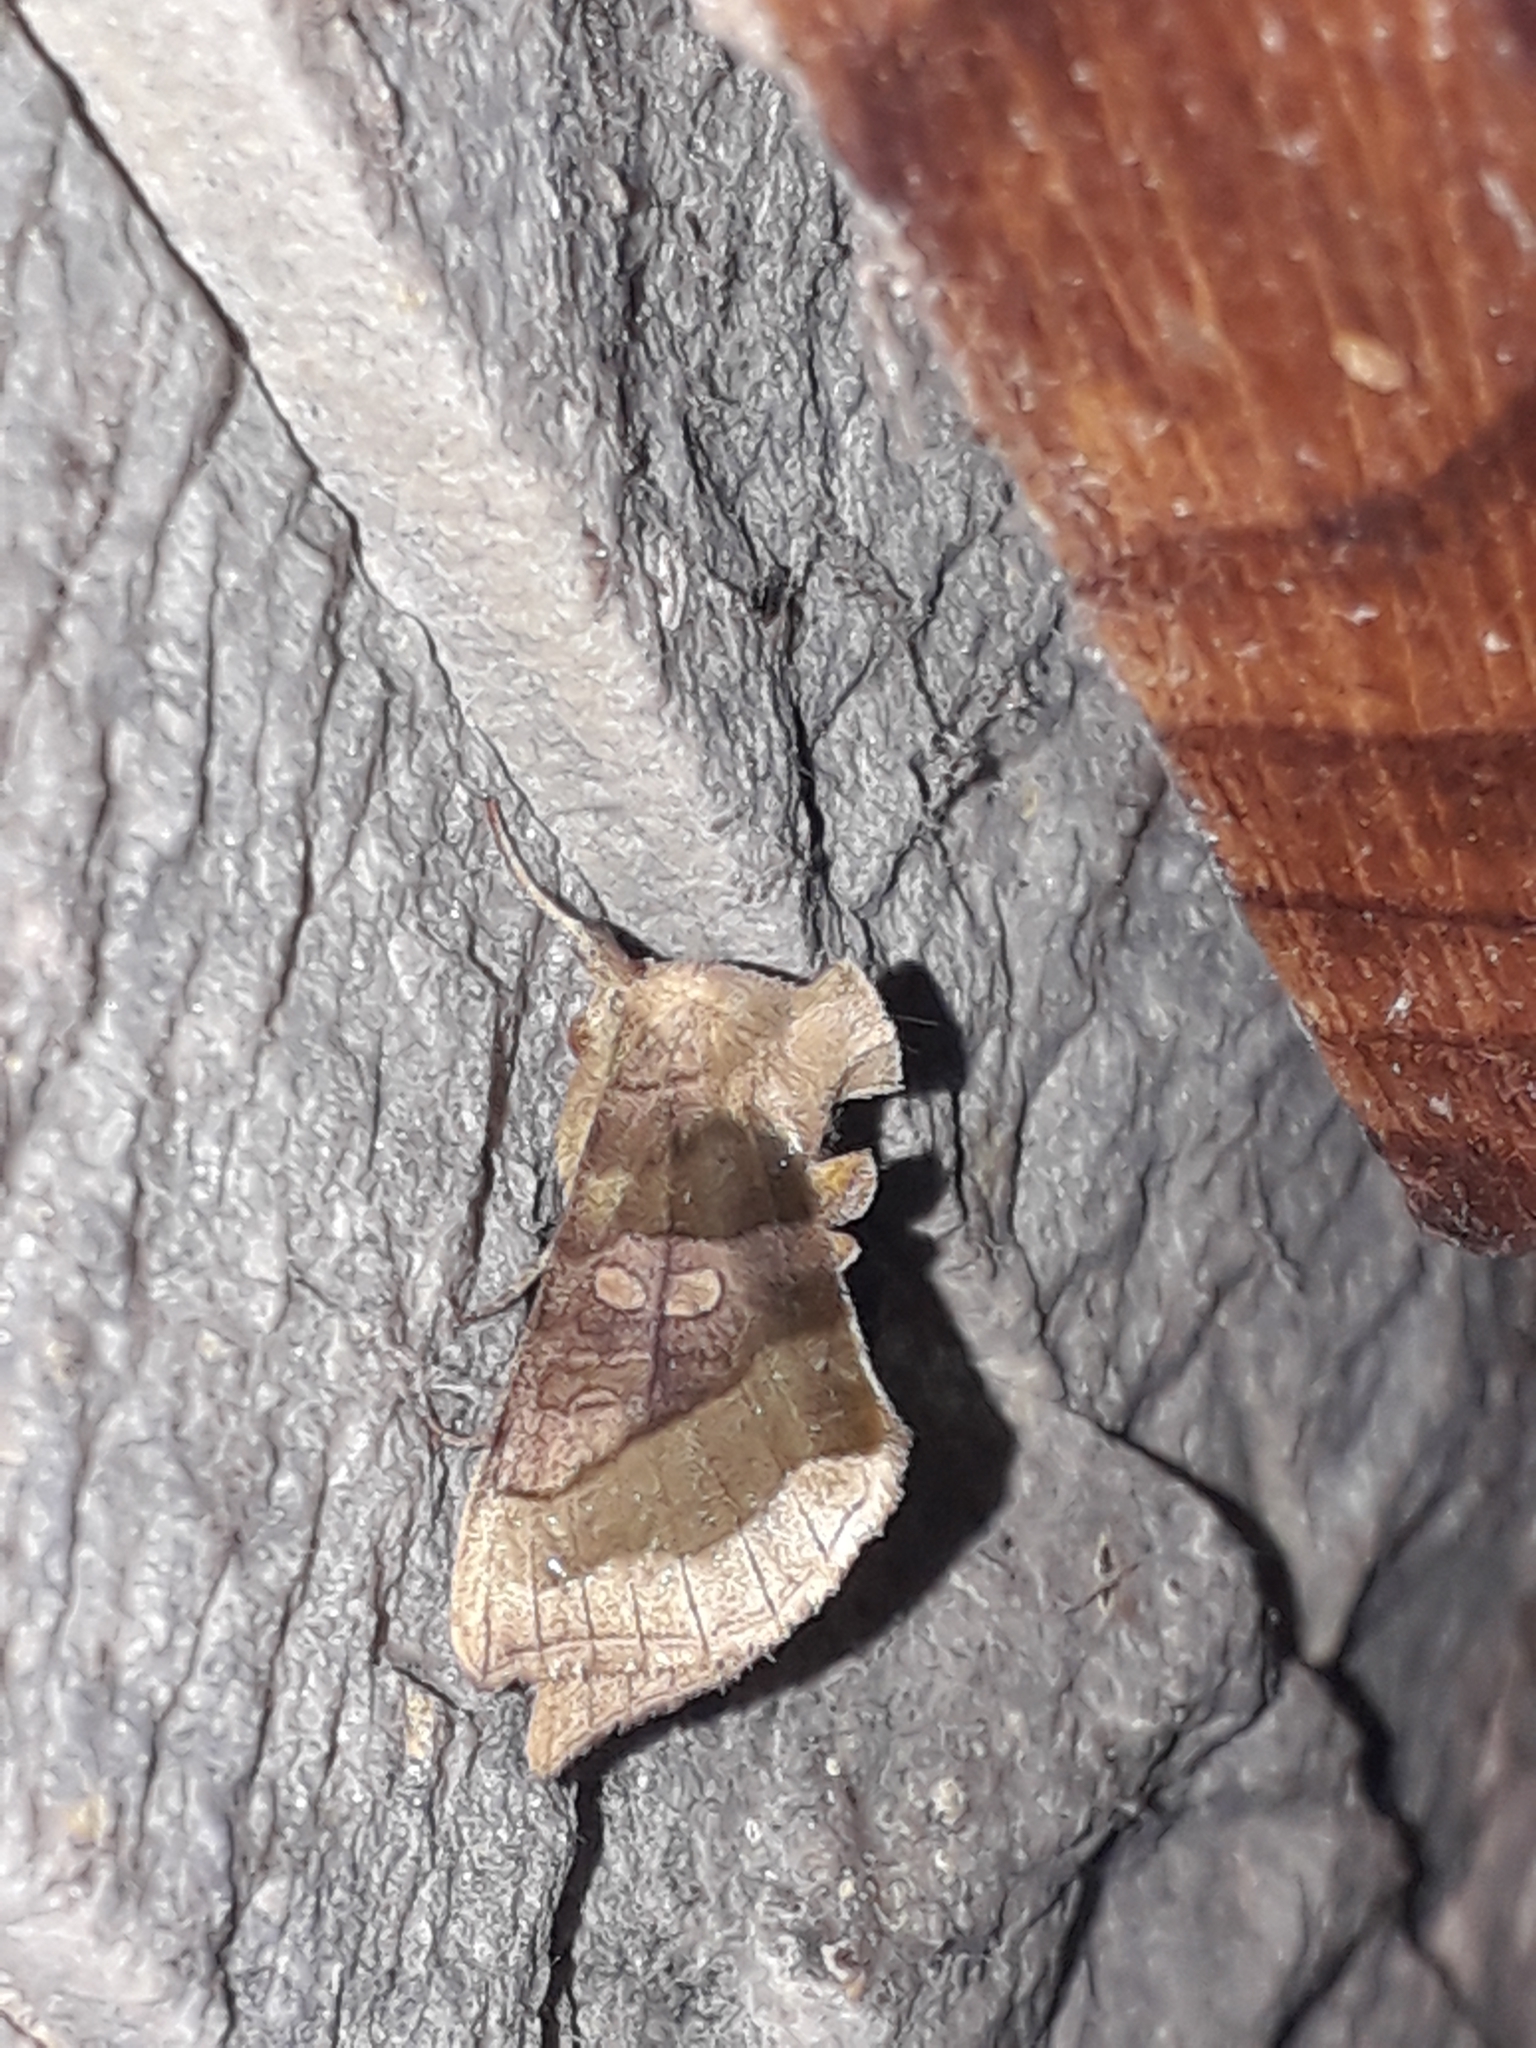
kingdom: Animalia
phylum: Arthropoda
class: Insecta
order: Lepidoptera
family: Noctuidae
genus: Diachrysia
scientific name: Diachrysia
